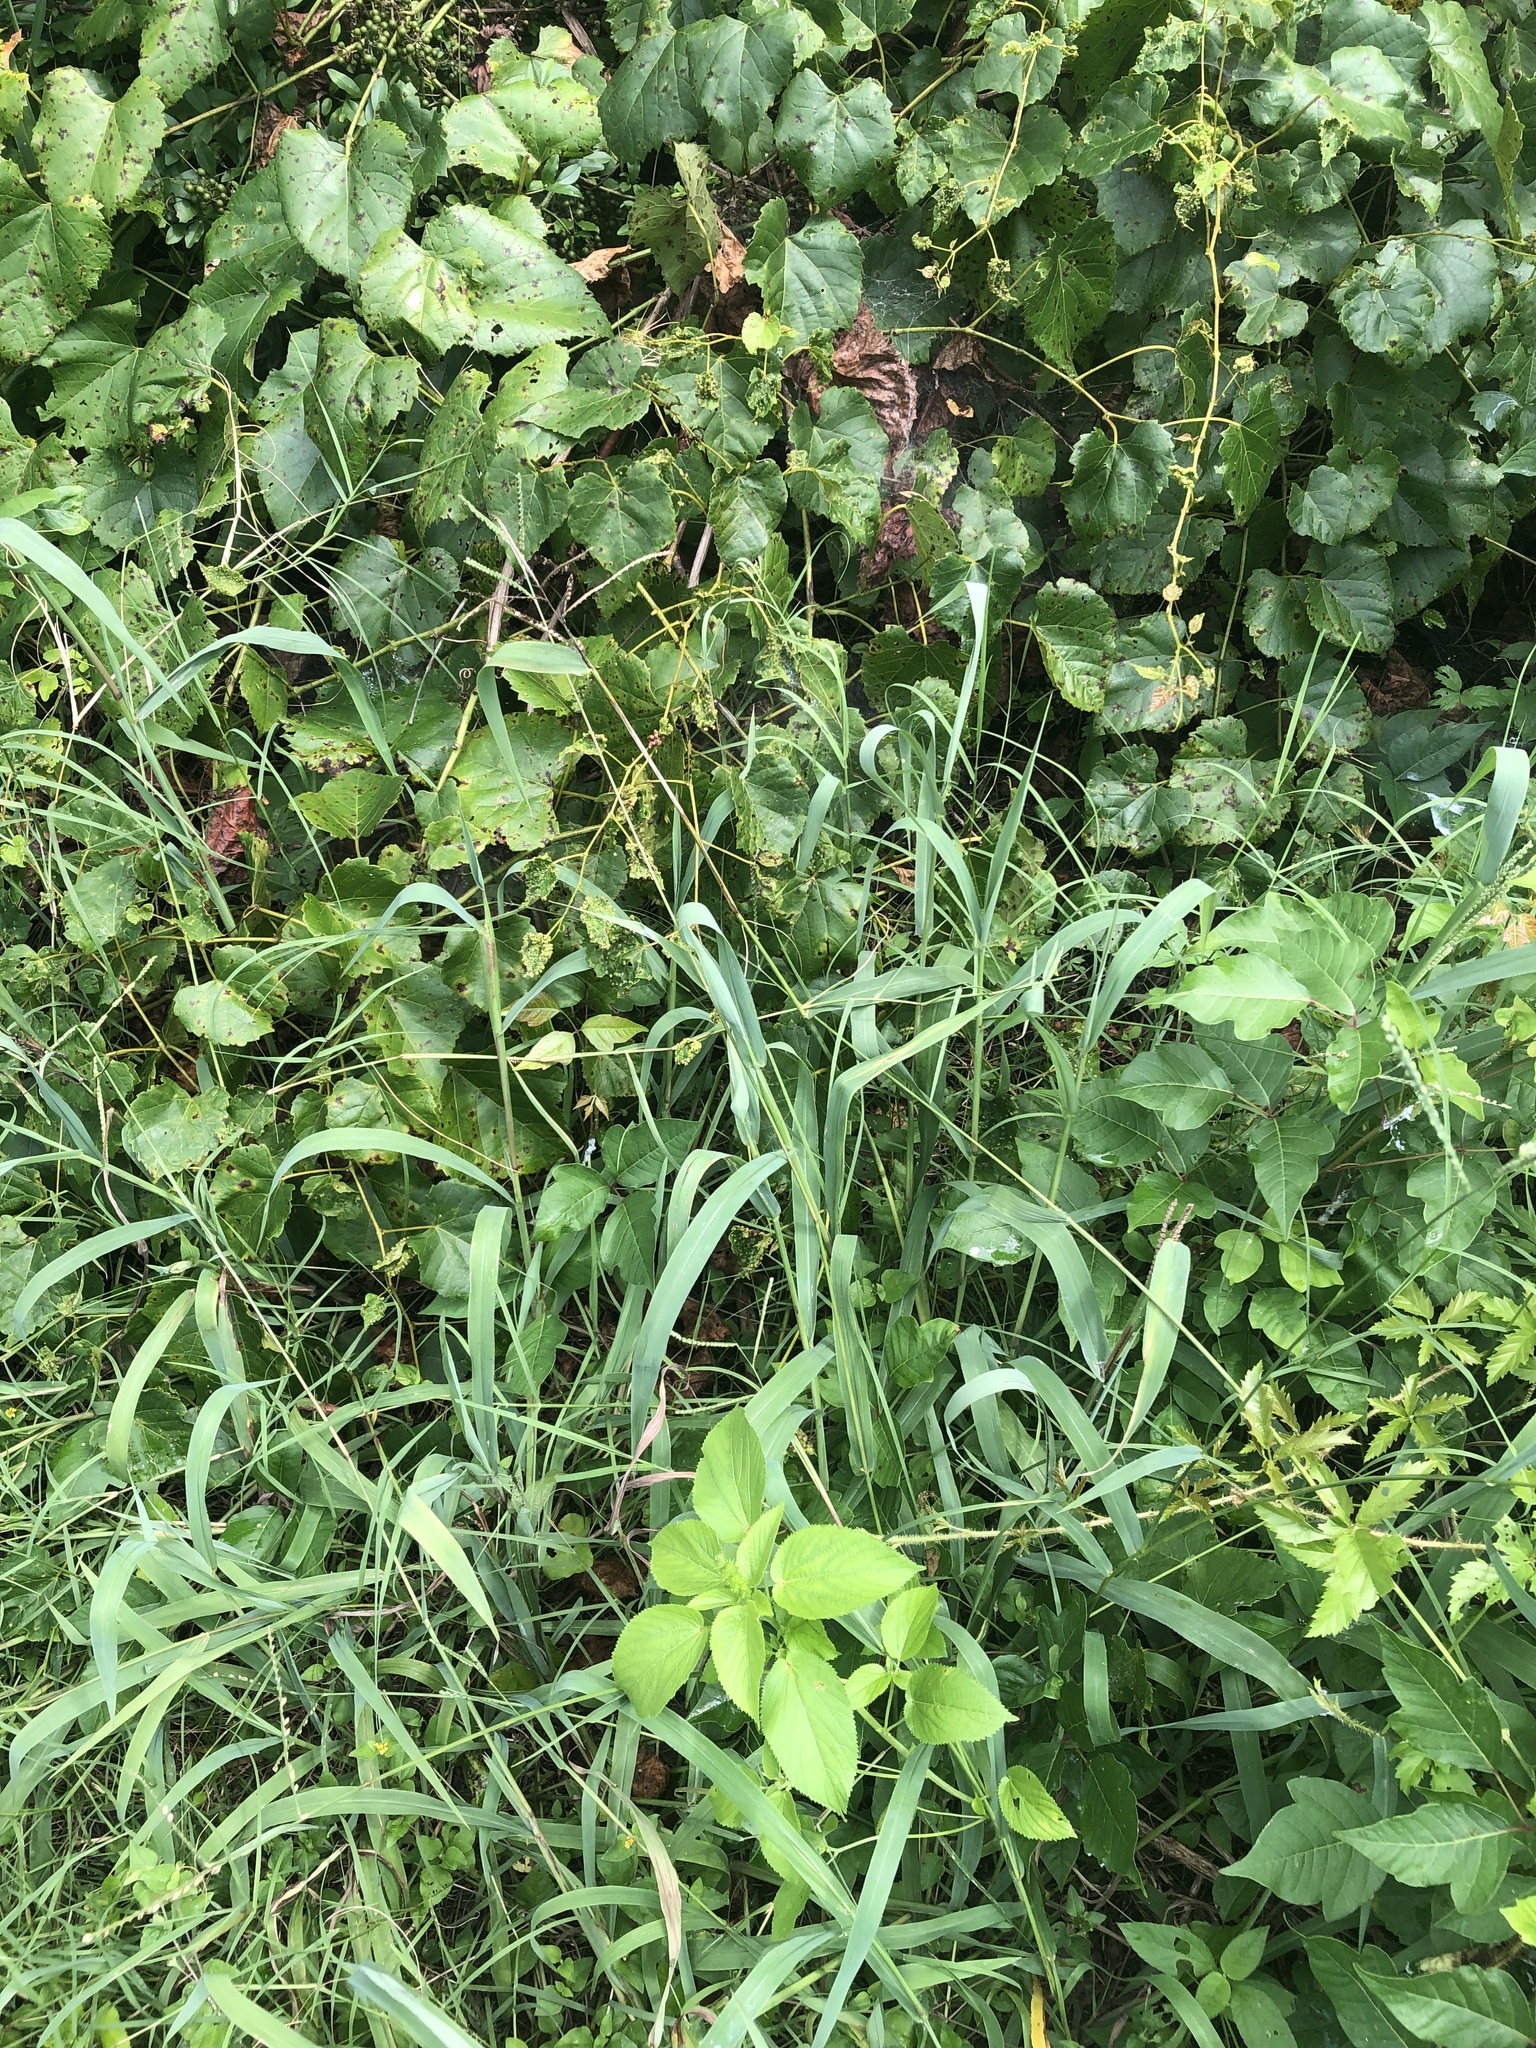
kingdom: Plantae
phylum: Tracheophyta
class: Liliopsida
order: Poales
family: Poaceae
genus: Paspalum
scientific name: Paspalum pubiflorum
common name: Hairy-seed paspalum
